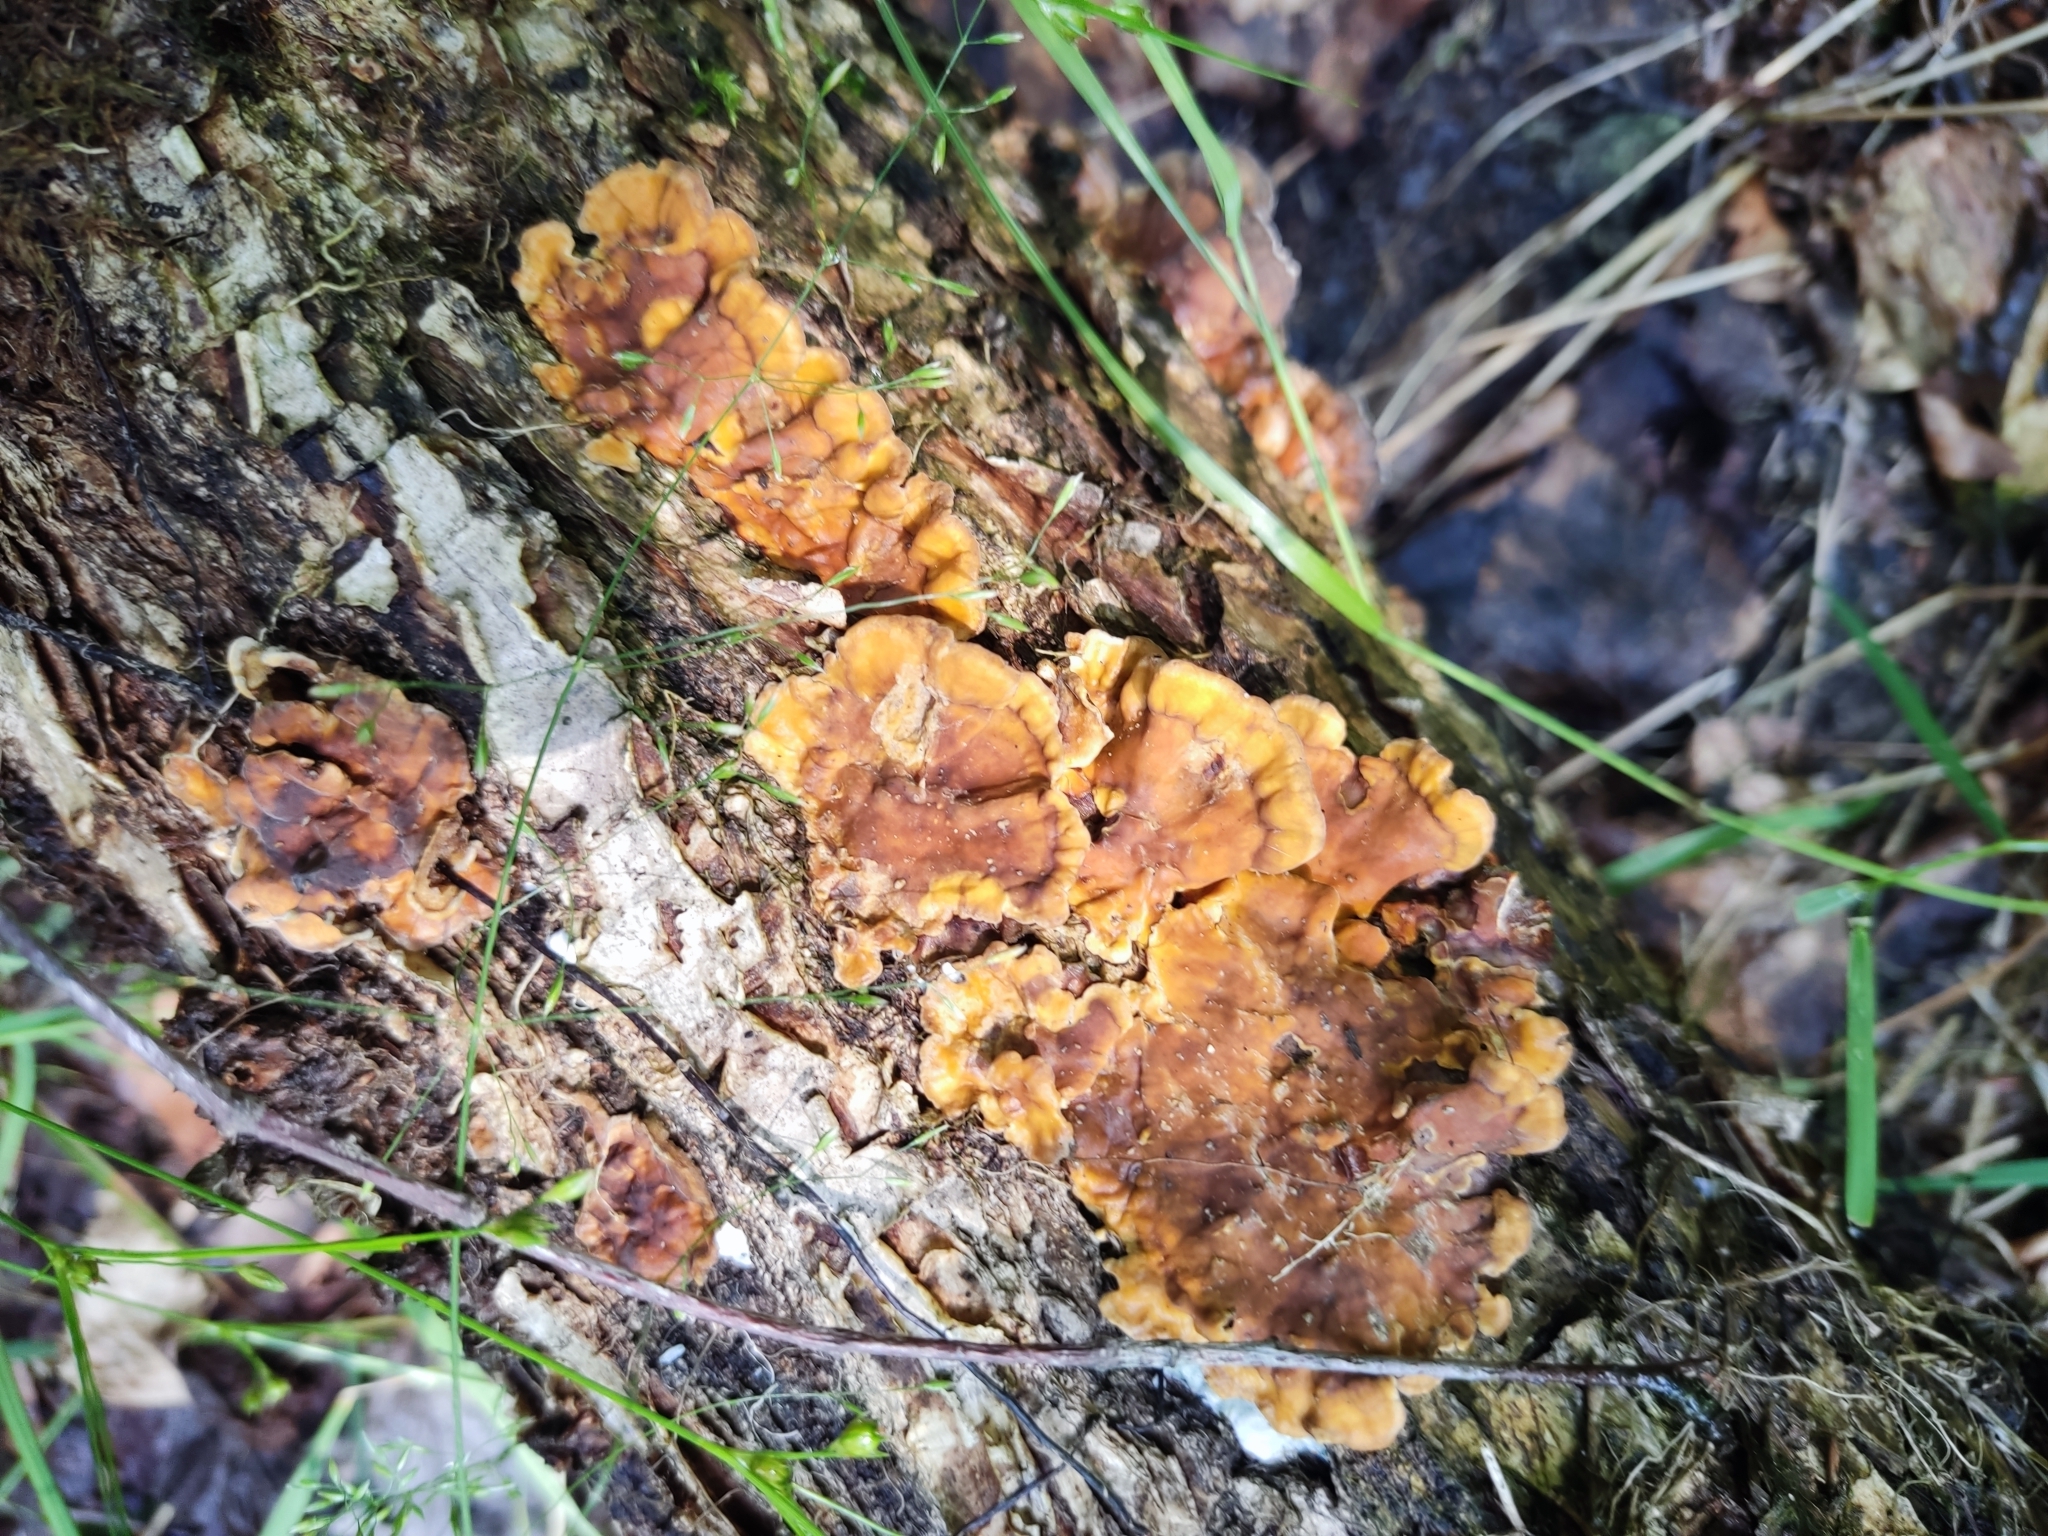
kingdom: Fungi
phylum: Basidiomycota
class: Agaricomycetes
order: Russulales
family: Stereaceae
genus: Stereum
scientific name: Stereum hirsutum
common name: Hairy curtain crust
